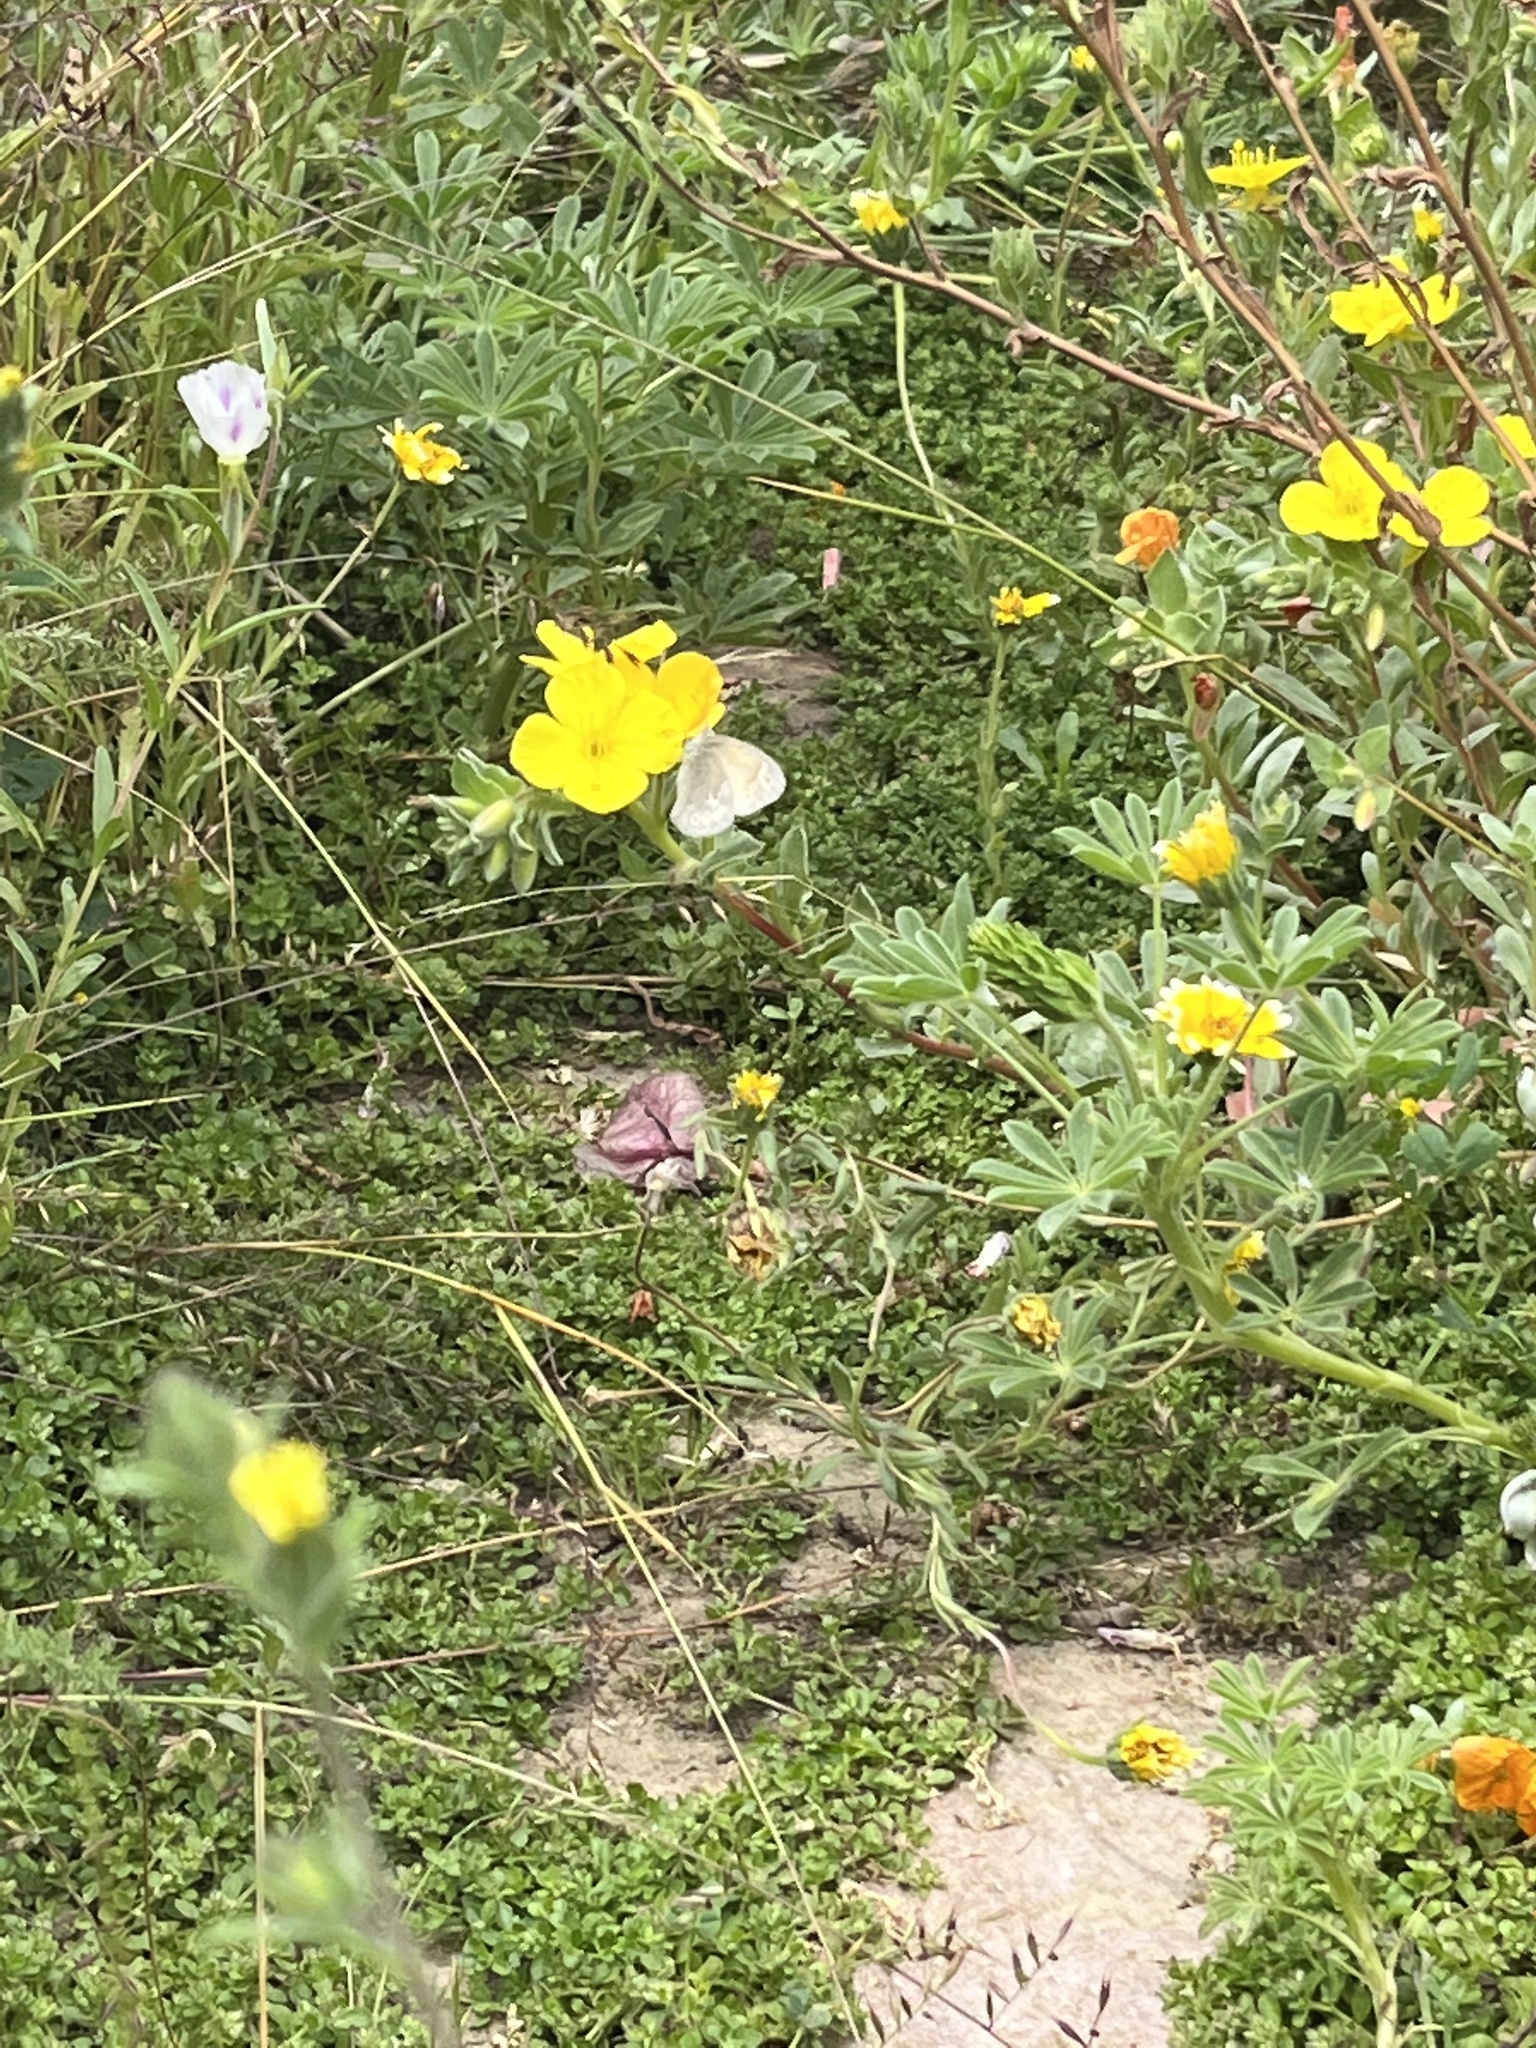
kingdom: Animalia
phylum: Arthropoda
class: Insecta
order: Lepidoptera
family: Nymphalidae
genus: Coenonympha
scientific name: Coenonympha california
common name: Common ringlet
